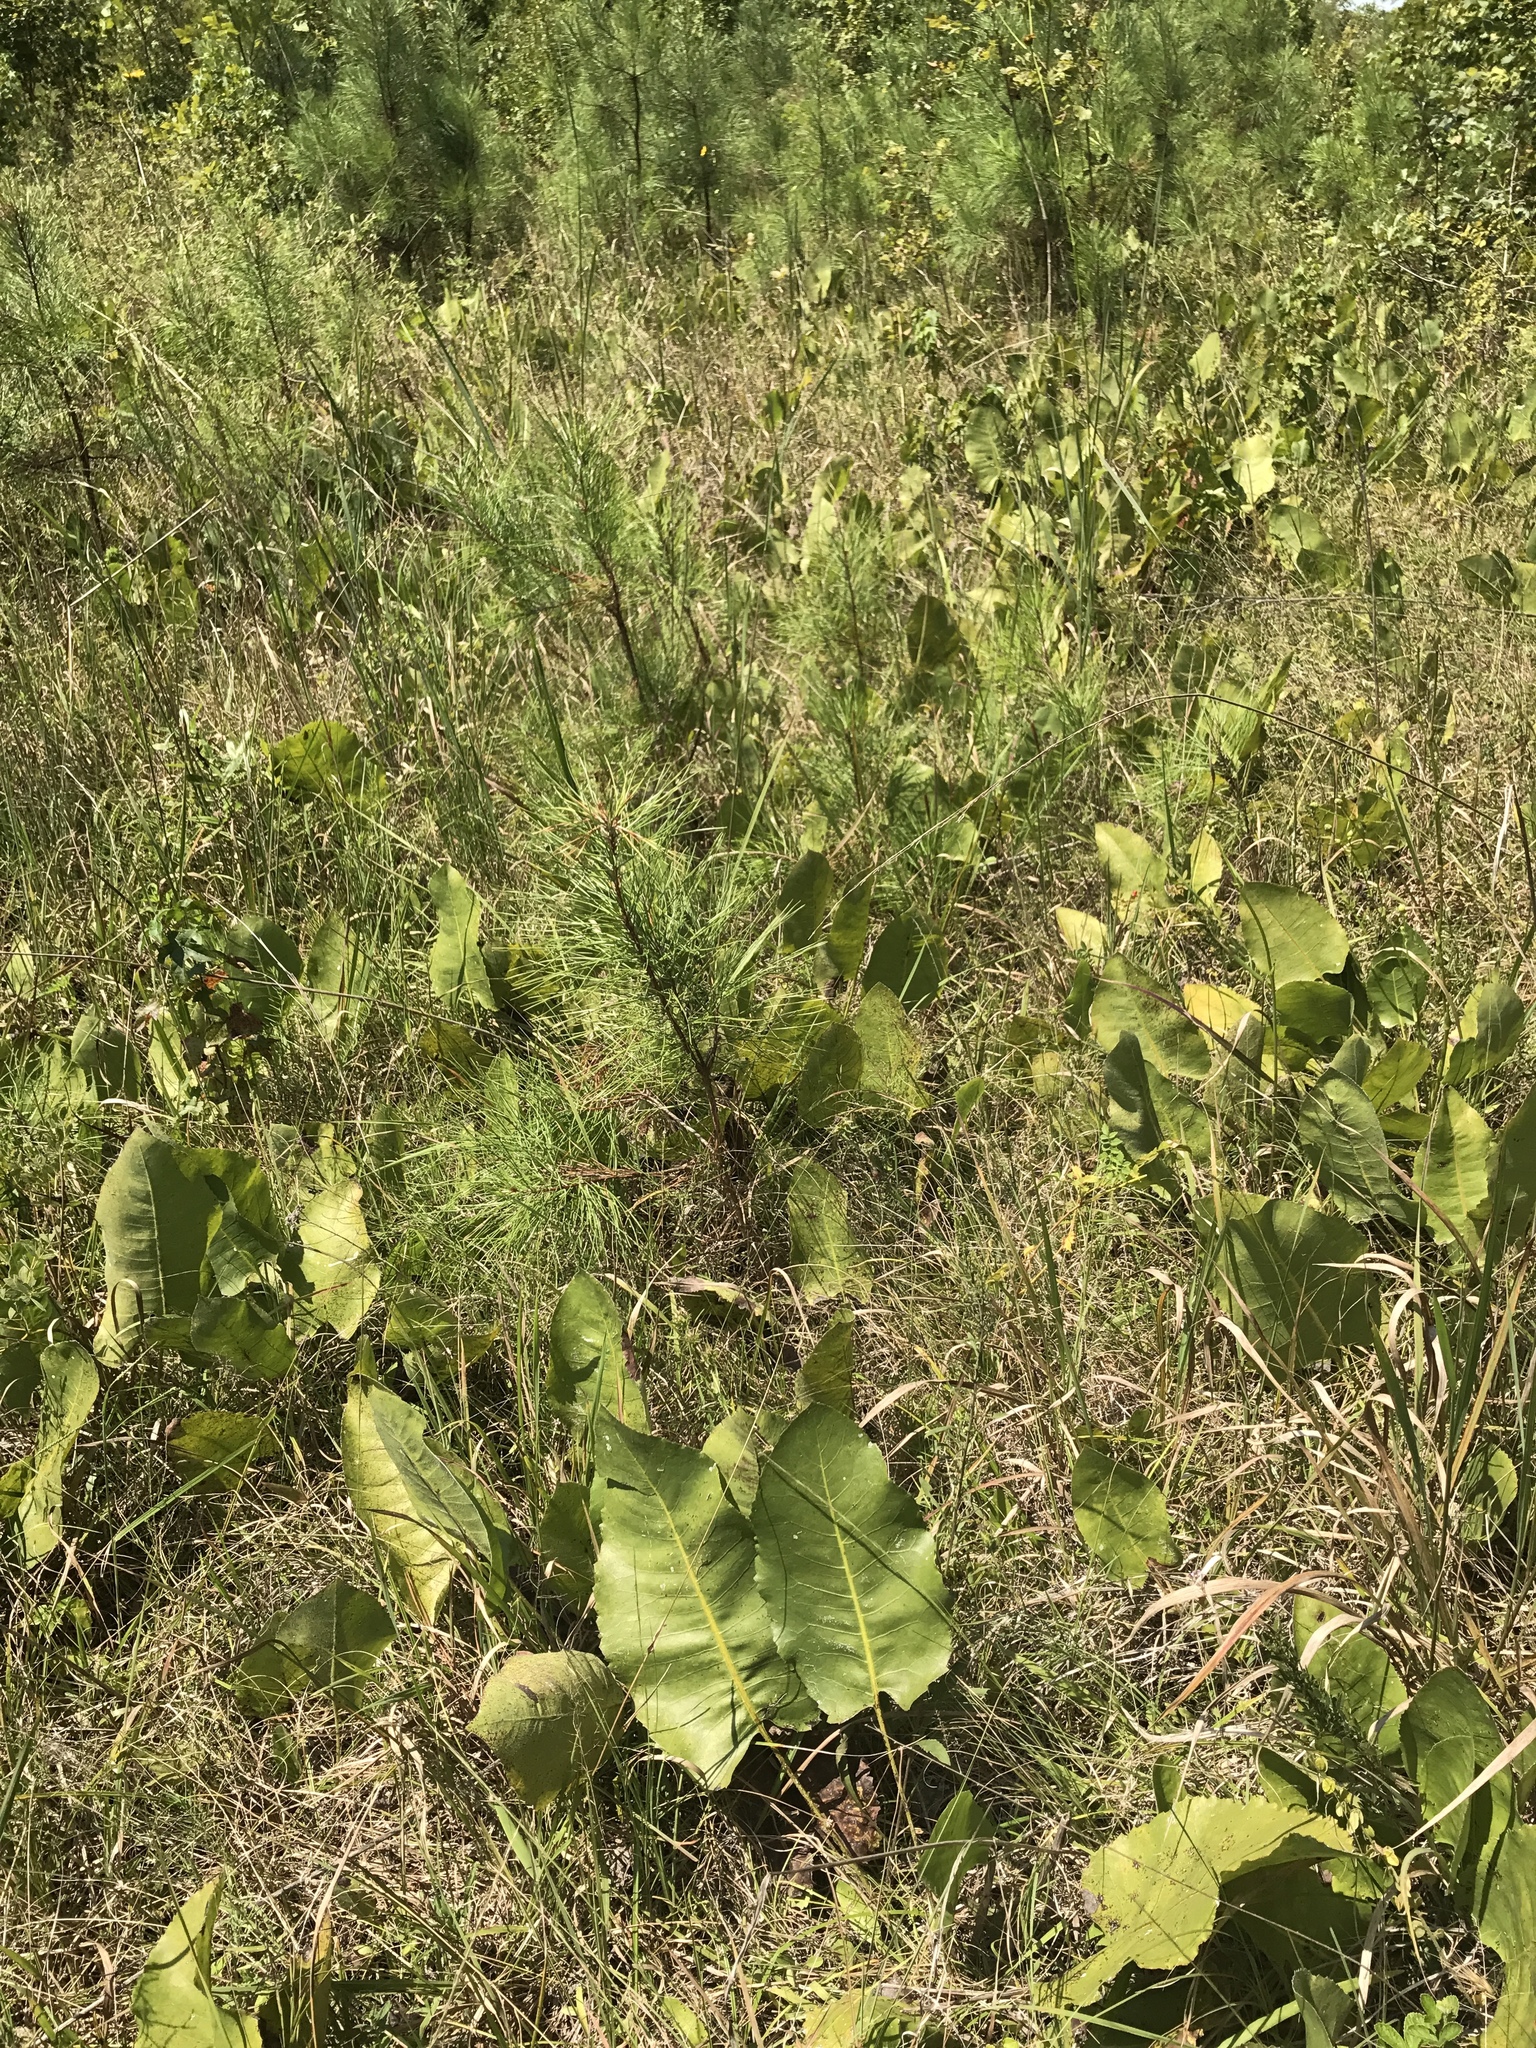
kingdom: Plantae
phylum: Tracheophyta
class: Magnoliopsida
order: Asterales
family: Asteraceae
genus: Silphium
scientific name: Silphium terebinthinaceum
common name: Basal-leaf rosinweed
